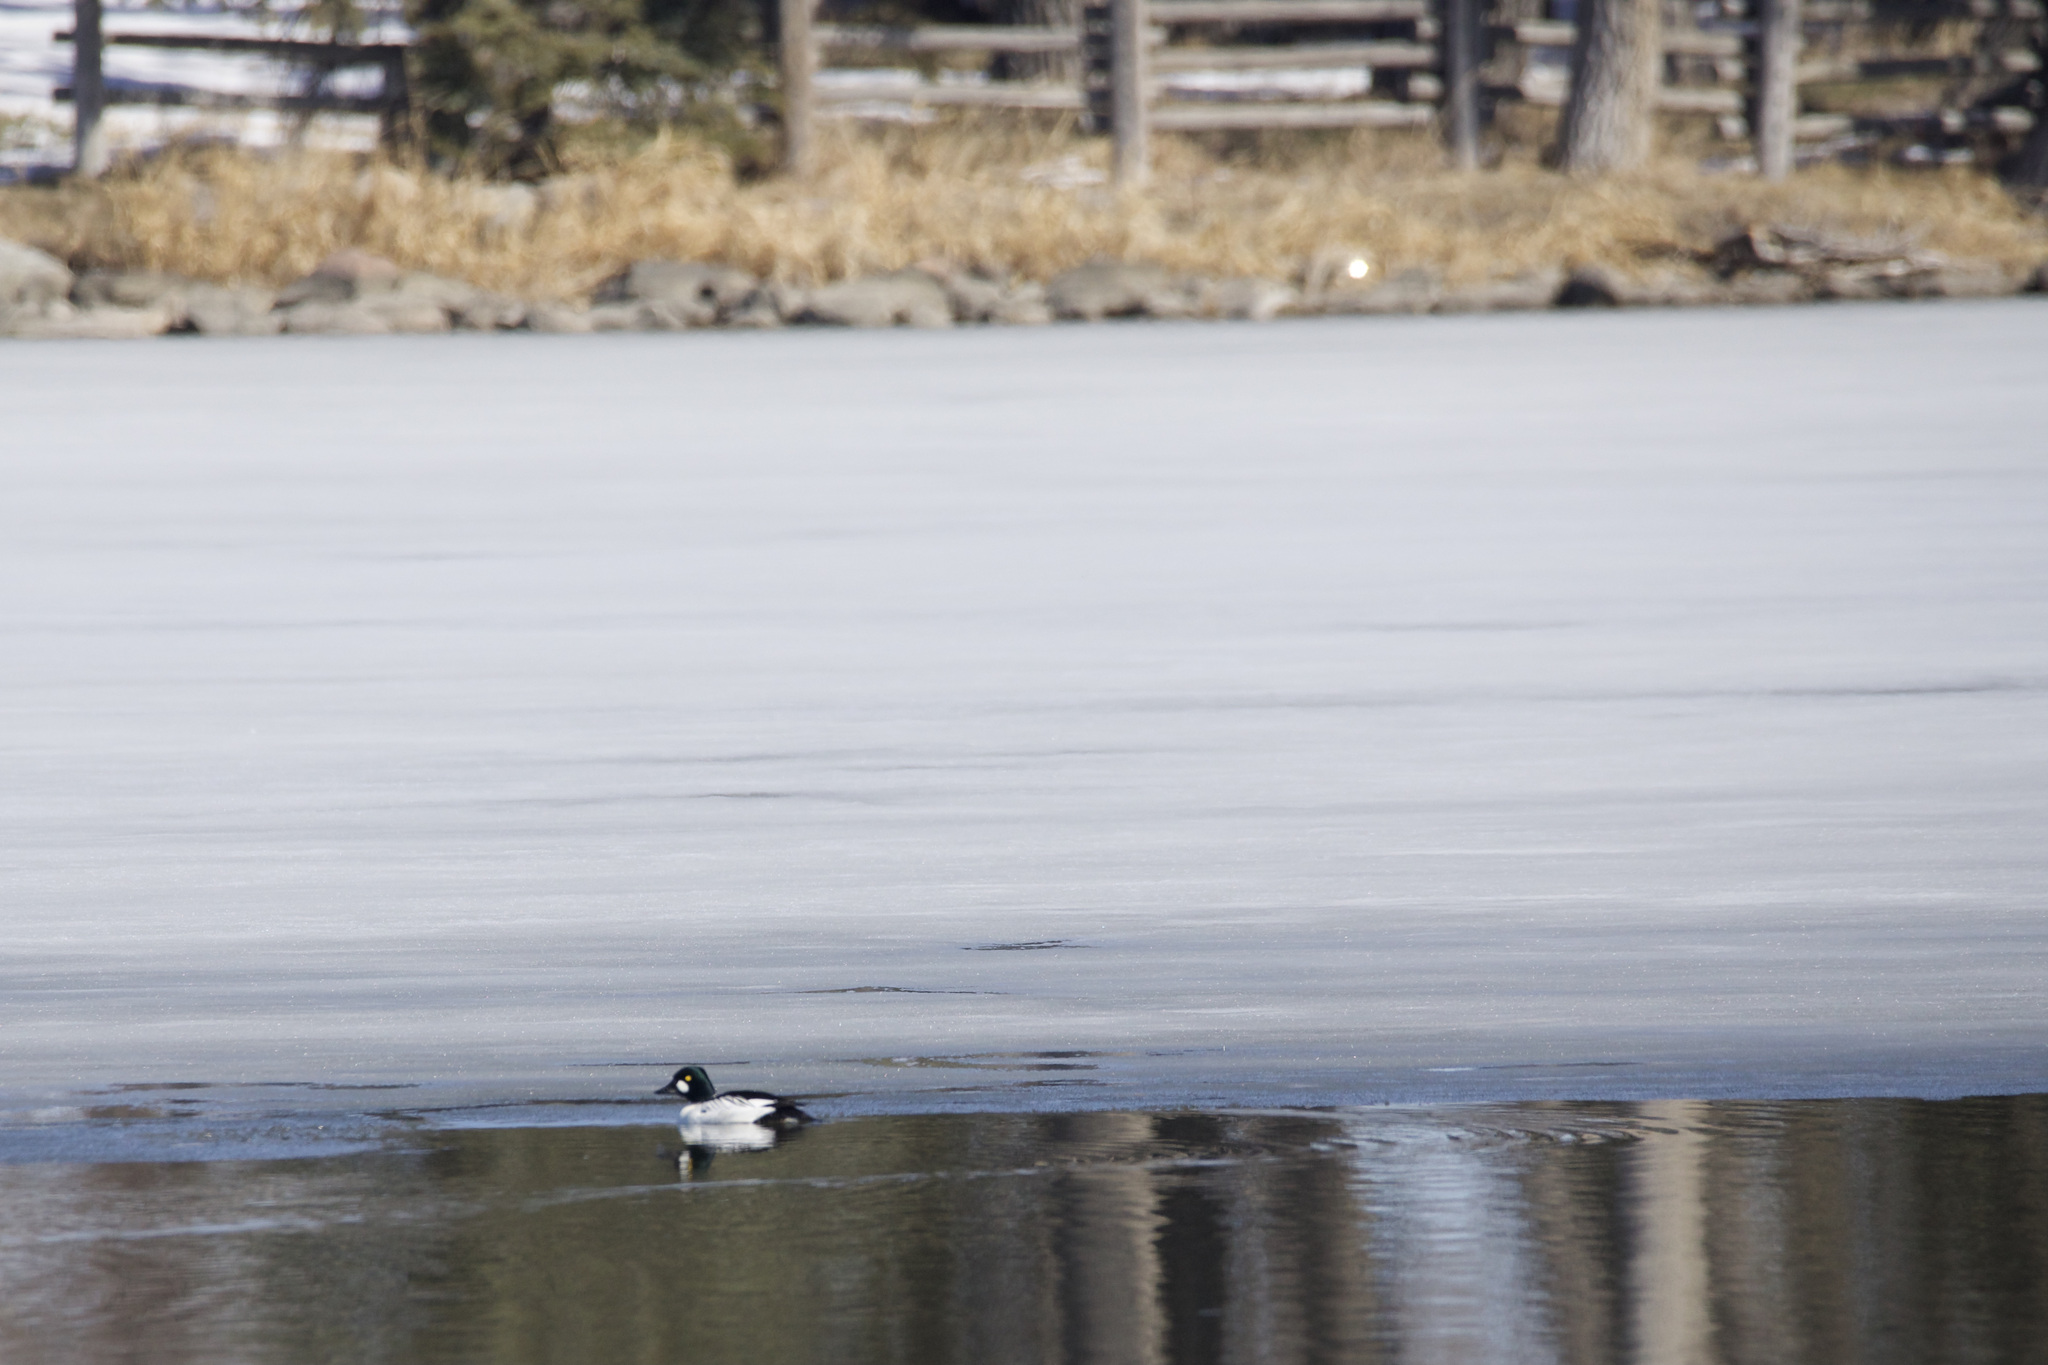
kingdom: Animalia
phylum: Chordata
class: Aves
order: Anseriformes
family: Anatidae
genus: Bucephala
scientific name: Bucephala clangula
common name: Common goldeneye
